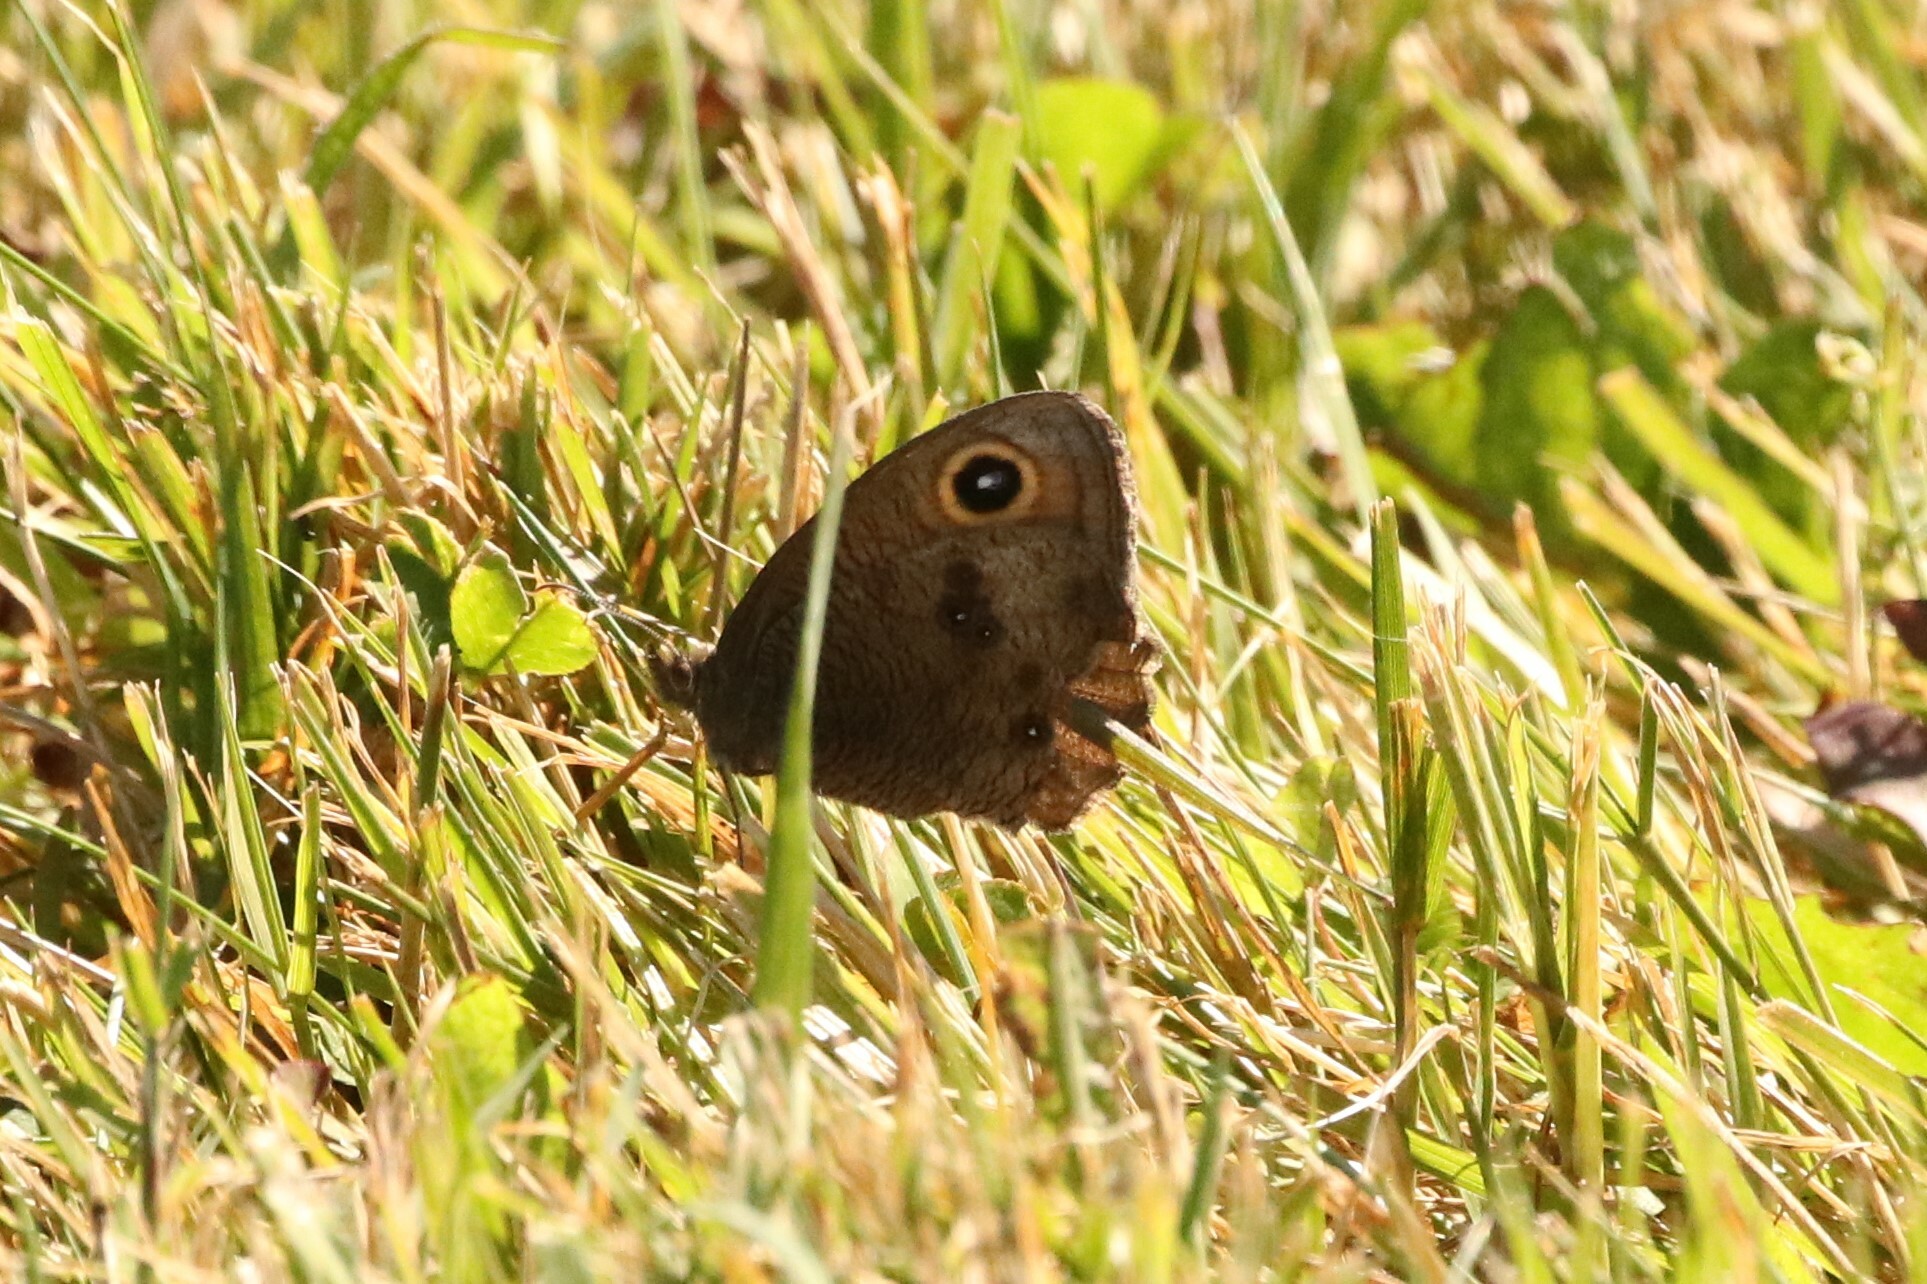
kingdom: Animalia
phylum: Arthropoda
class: Insecta
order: Lepidoptera
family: Nymphalidae
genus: Cercyonis
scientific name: Cercyonis pegala
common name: Common wood-nymph
